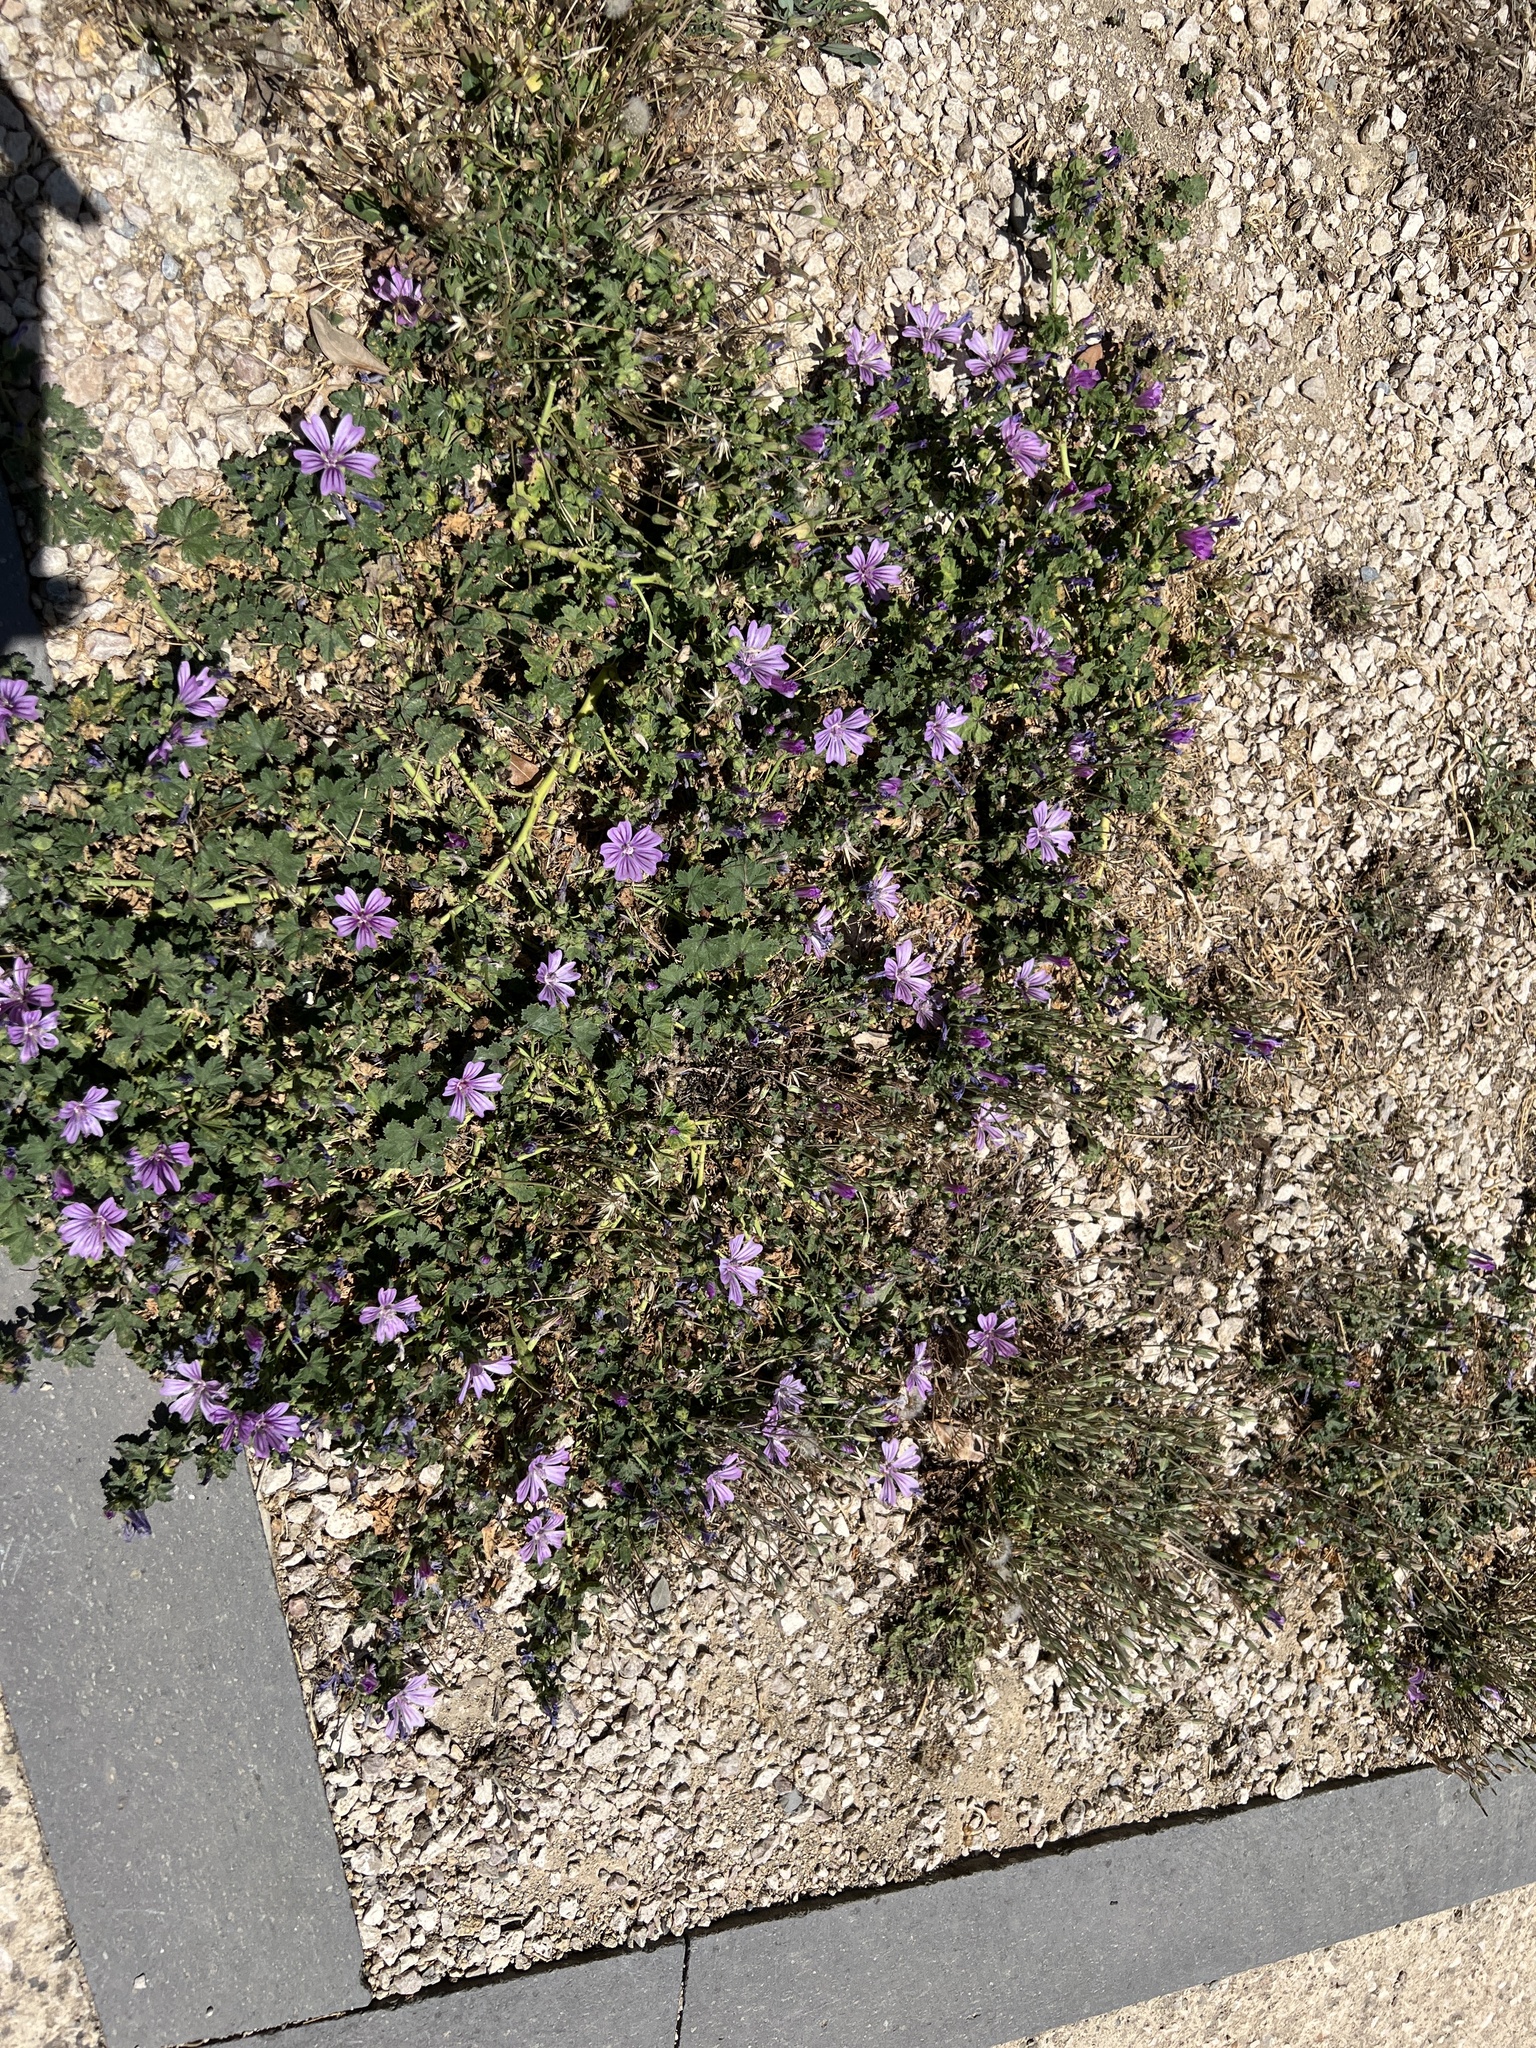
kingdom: Plantae
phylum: Tracheophyta
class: Magnoliopsida
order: Malvales
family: Malvaceae
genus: Malva
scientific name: Malva sylvestris
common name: Common mallow
